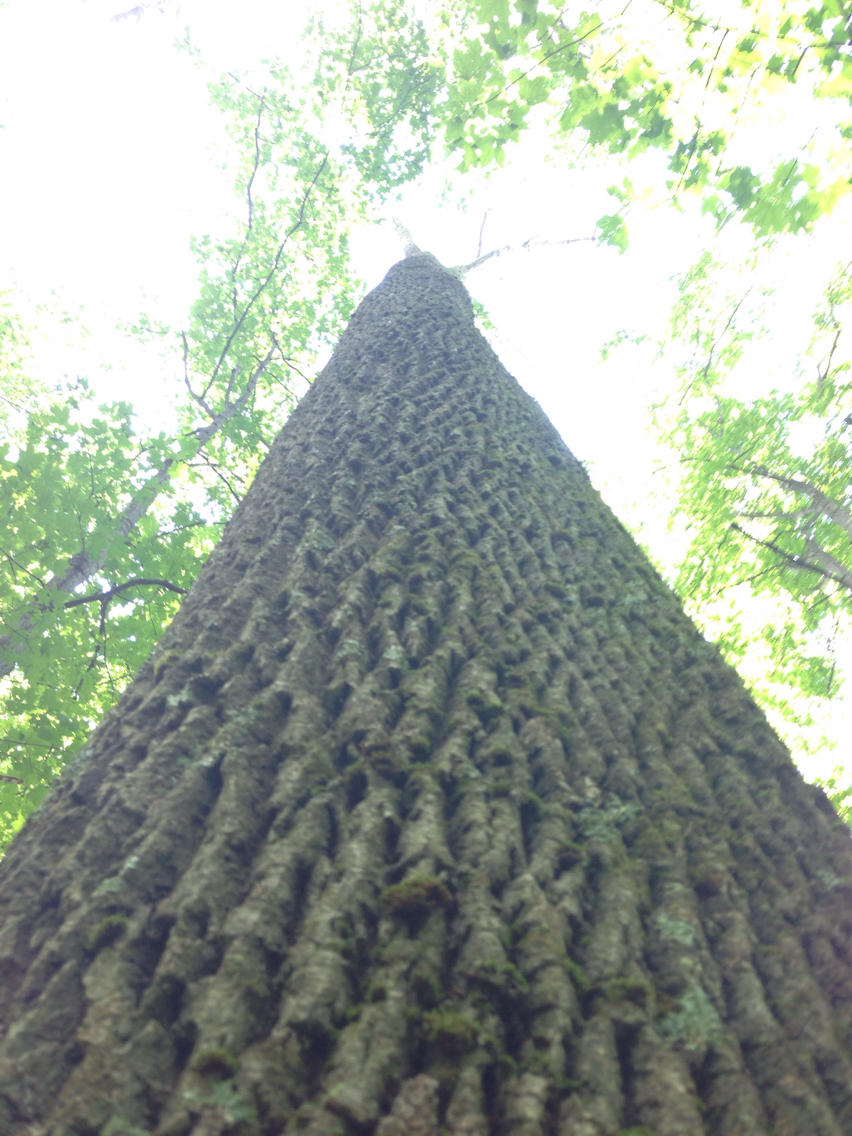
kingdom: Plantae
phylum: Tracheophyta
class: Magnoliopsida
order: Lamiales
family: Oleaceae
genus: Fraxinus
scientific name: Fraxinus americana
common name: White ash
